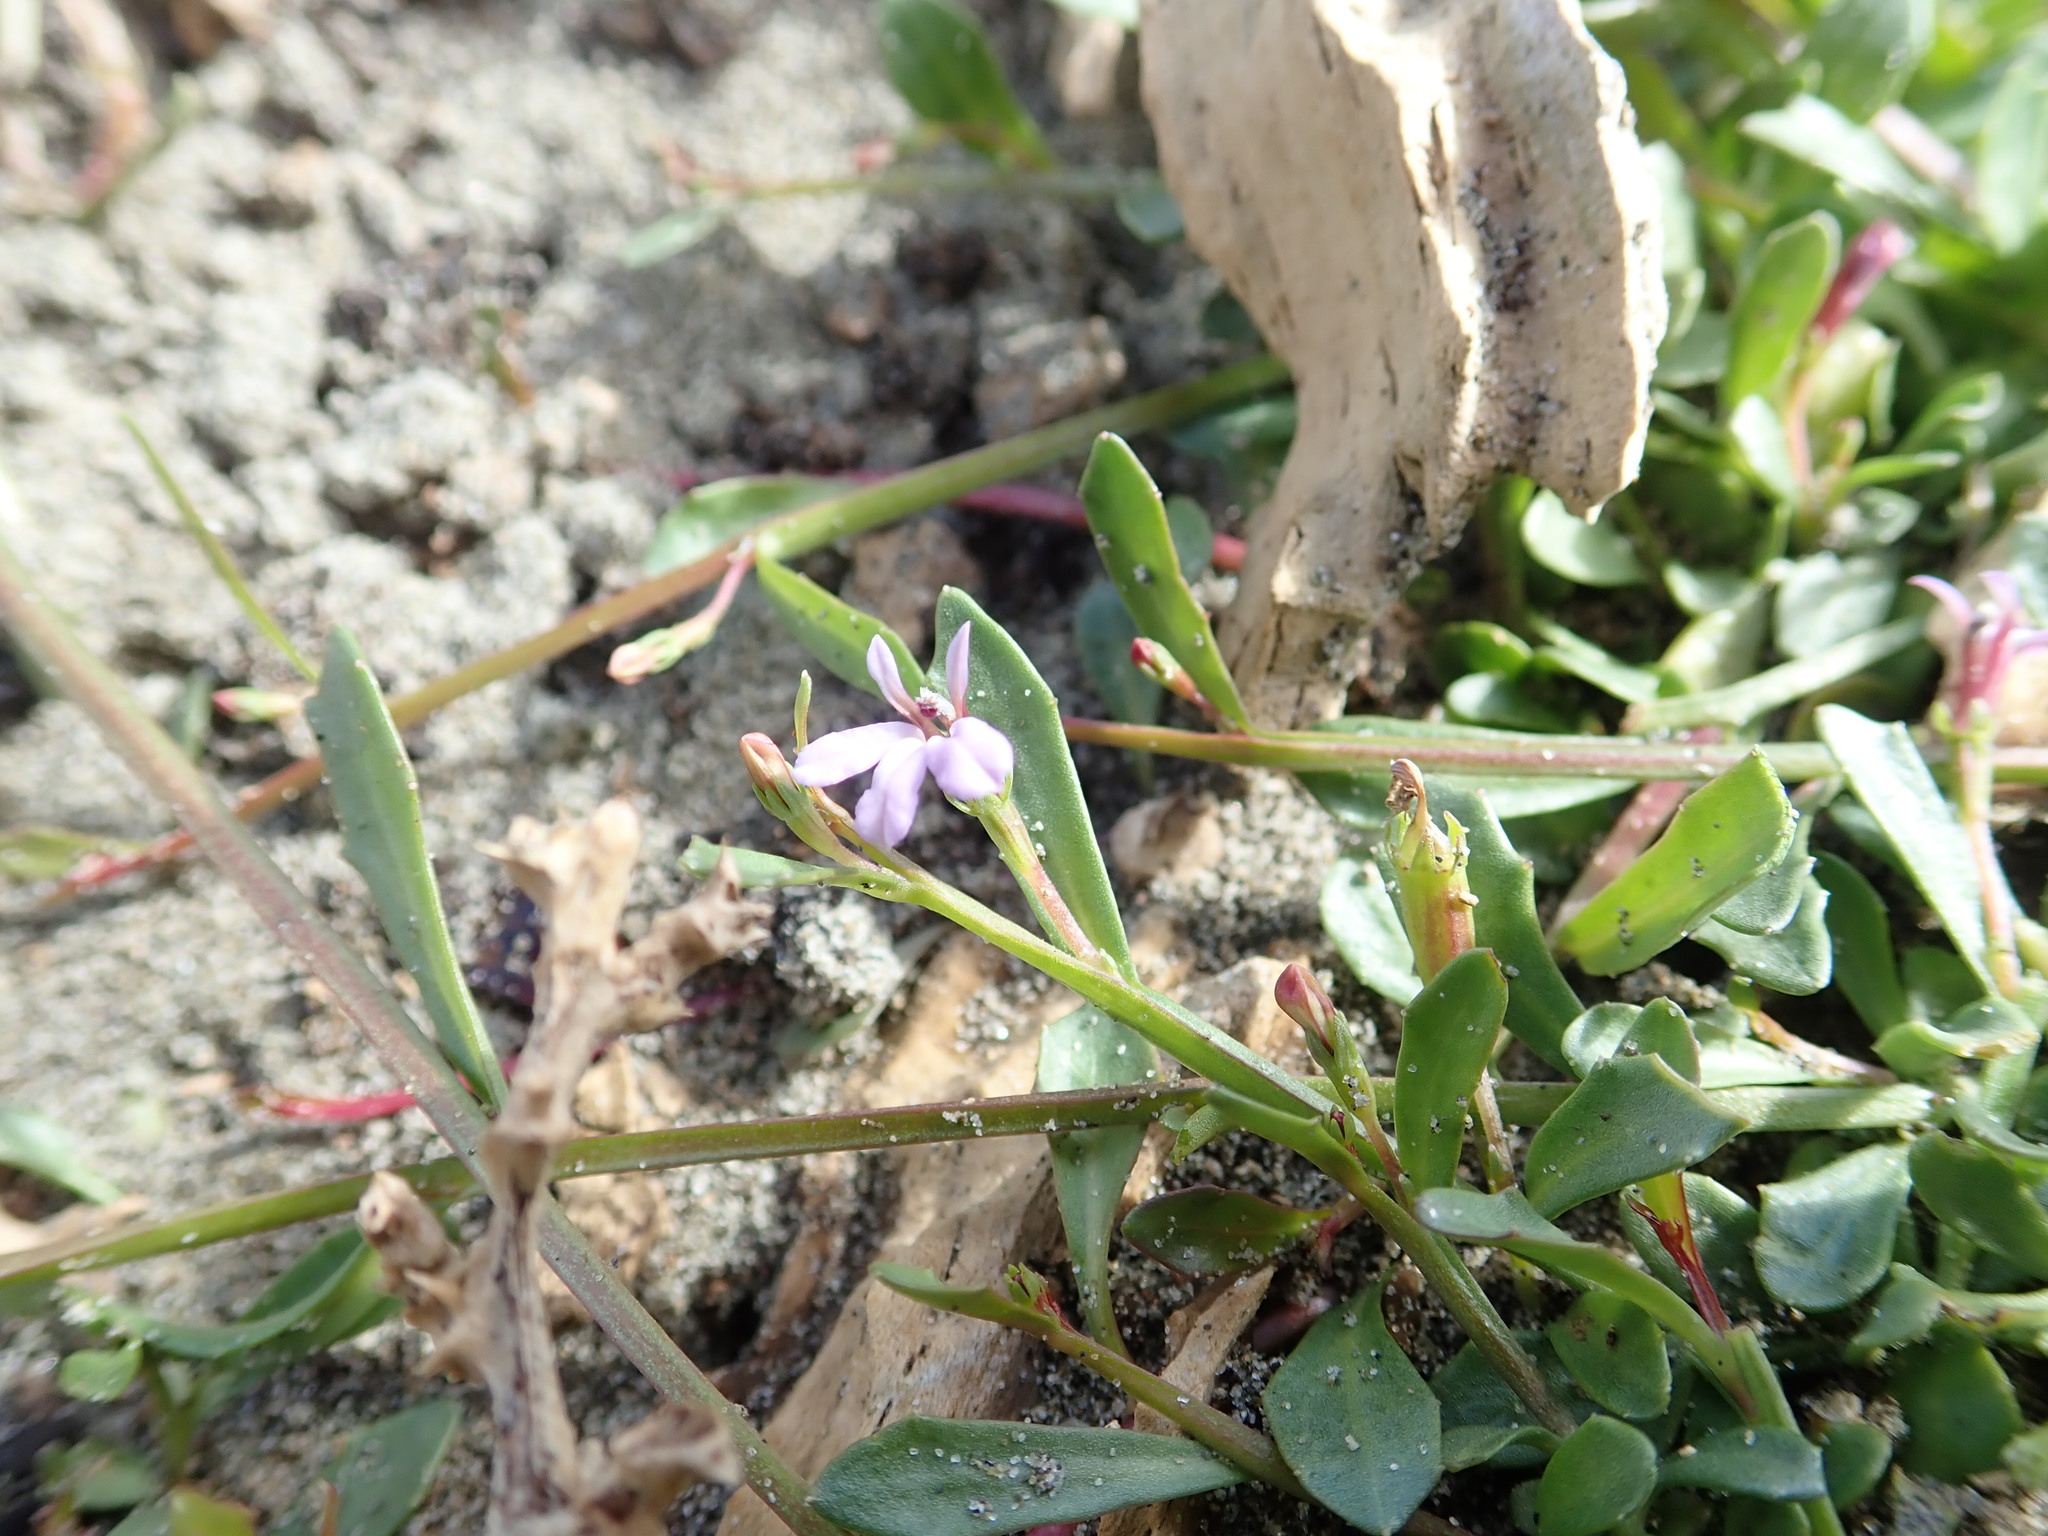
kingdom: Plantae
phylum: Tracheophyta
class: Magnoliopsida
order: Asterales
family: Campanulaceae
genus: Lobelia
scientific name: Lobelia anceps
